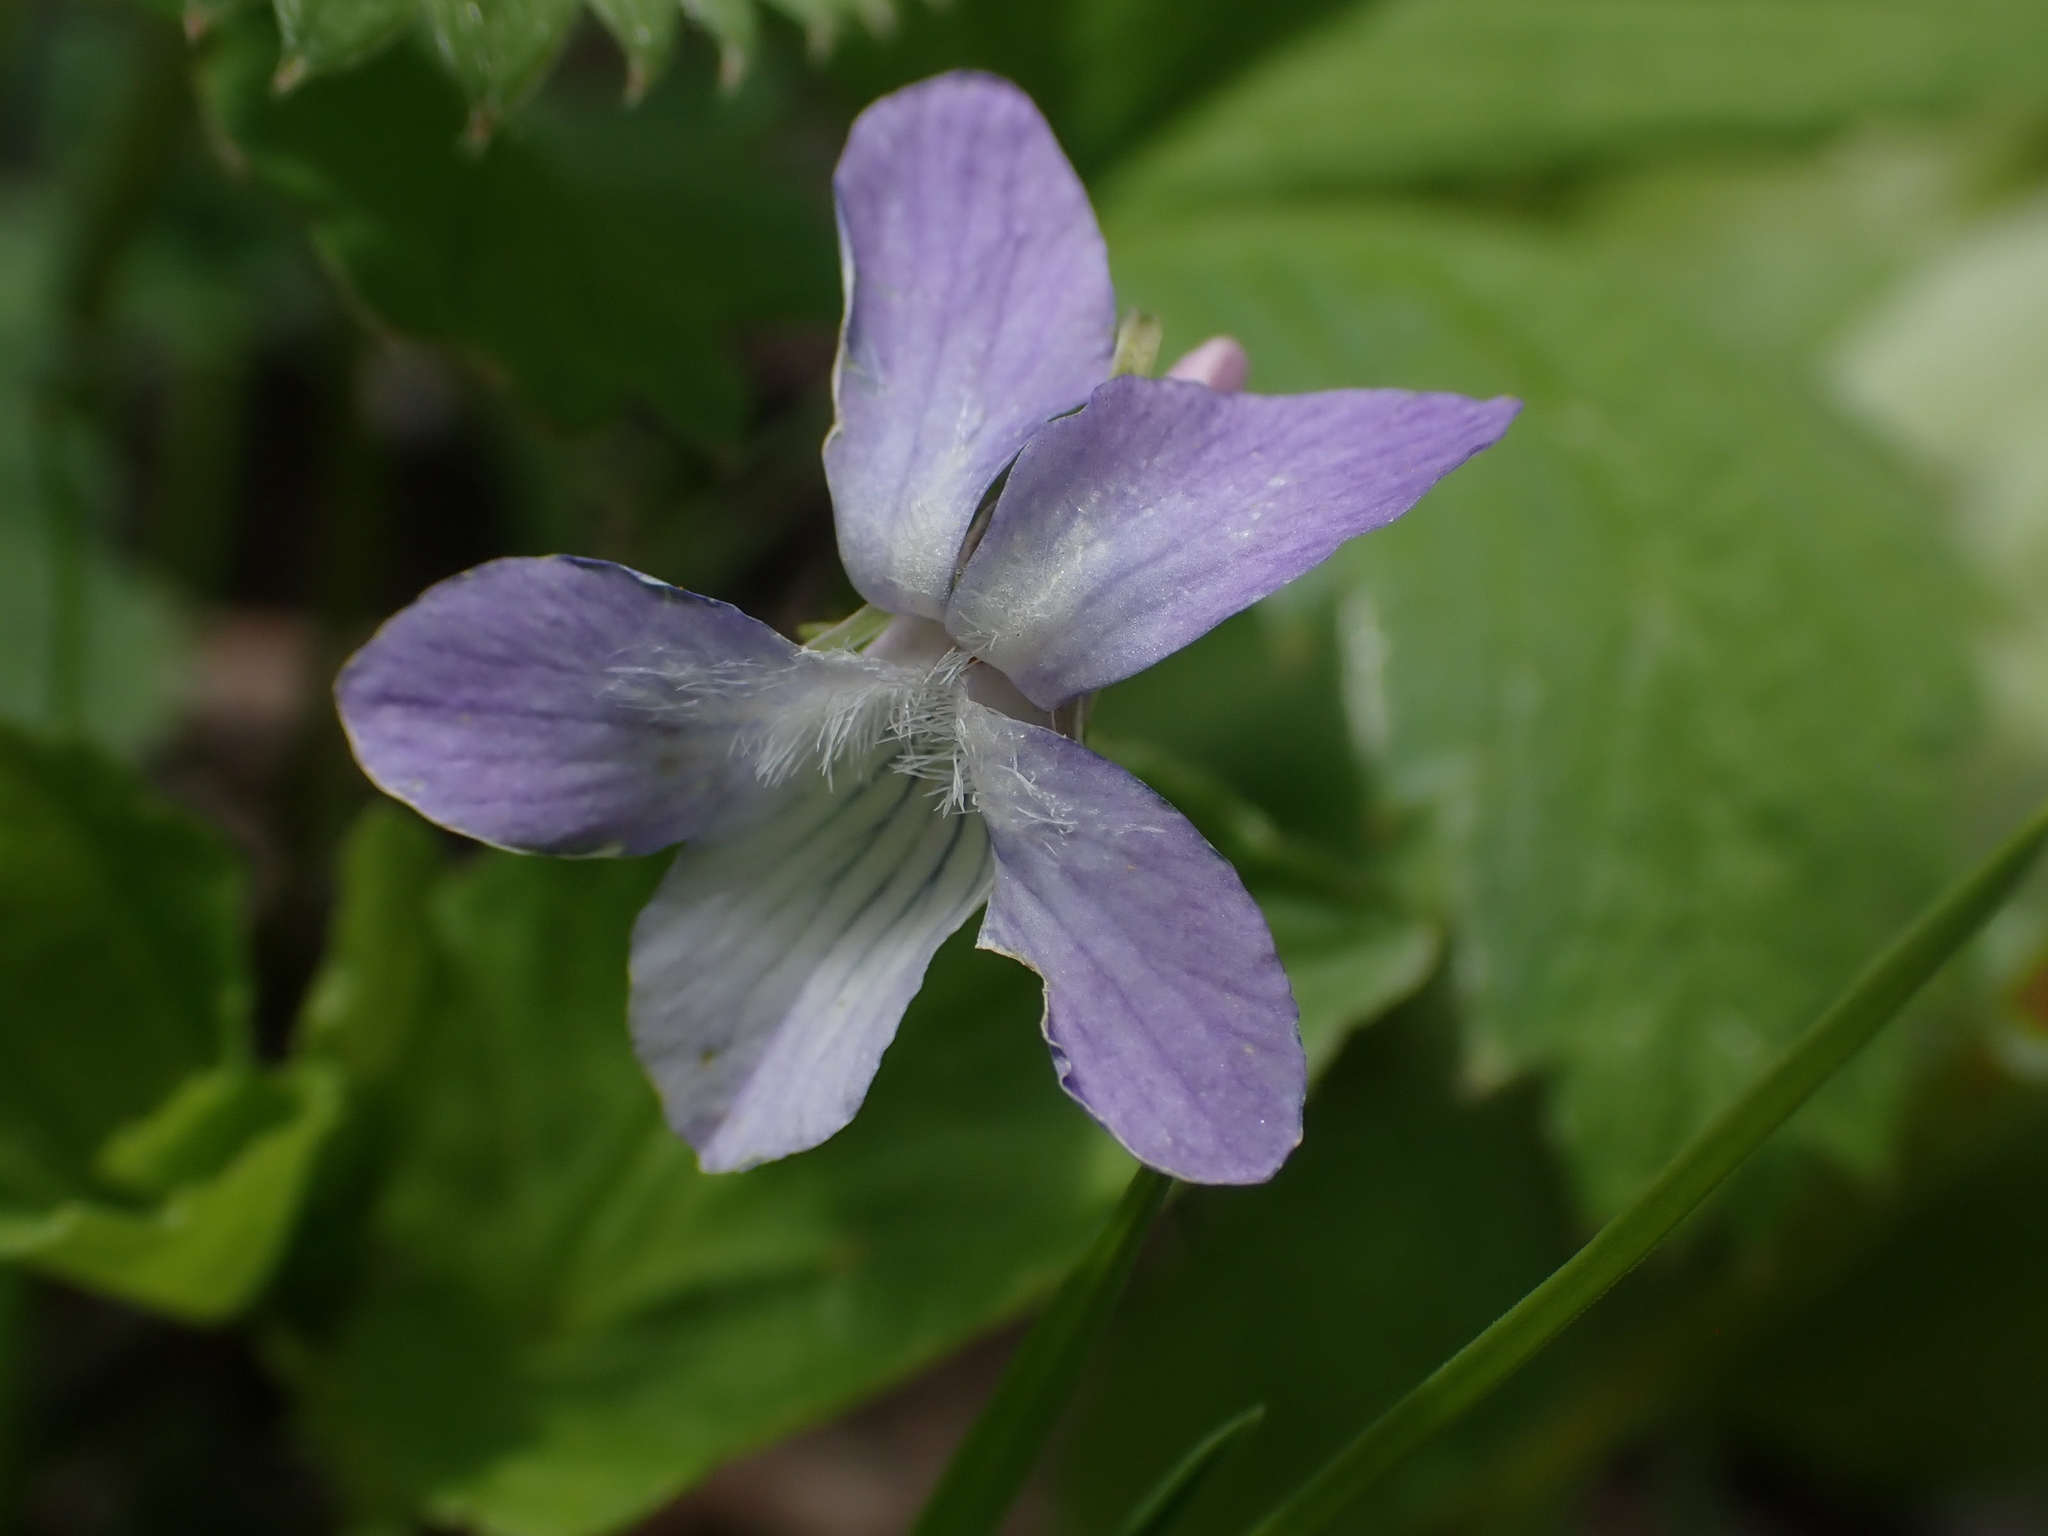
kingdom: Plantae
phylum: Tracheophyta
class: Magnoliopsida
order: Malpighiales
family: Violaceae
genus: Viola
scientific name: Viola labradorica
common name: Labrador violet
